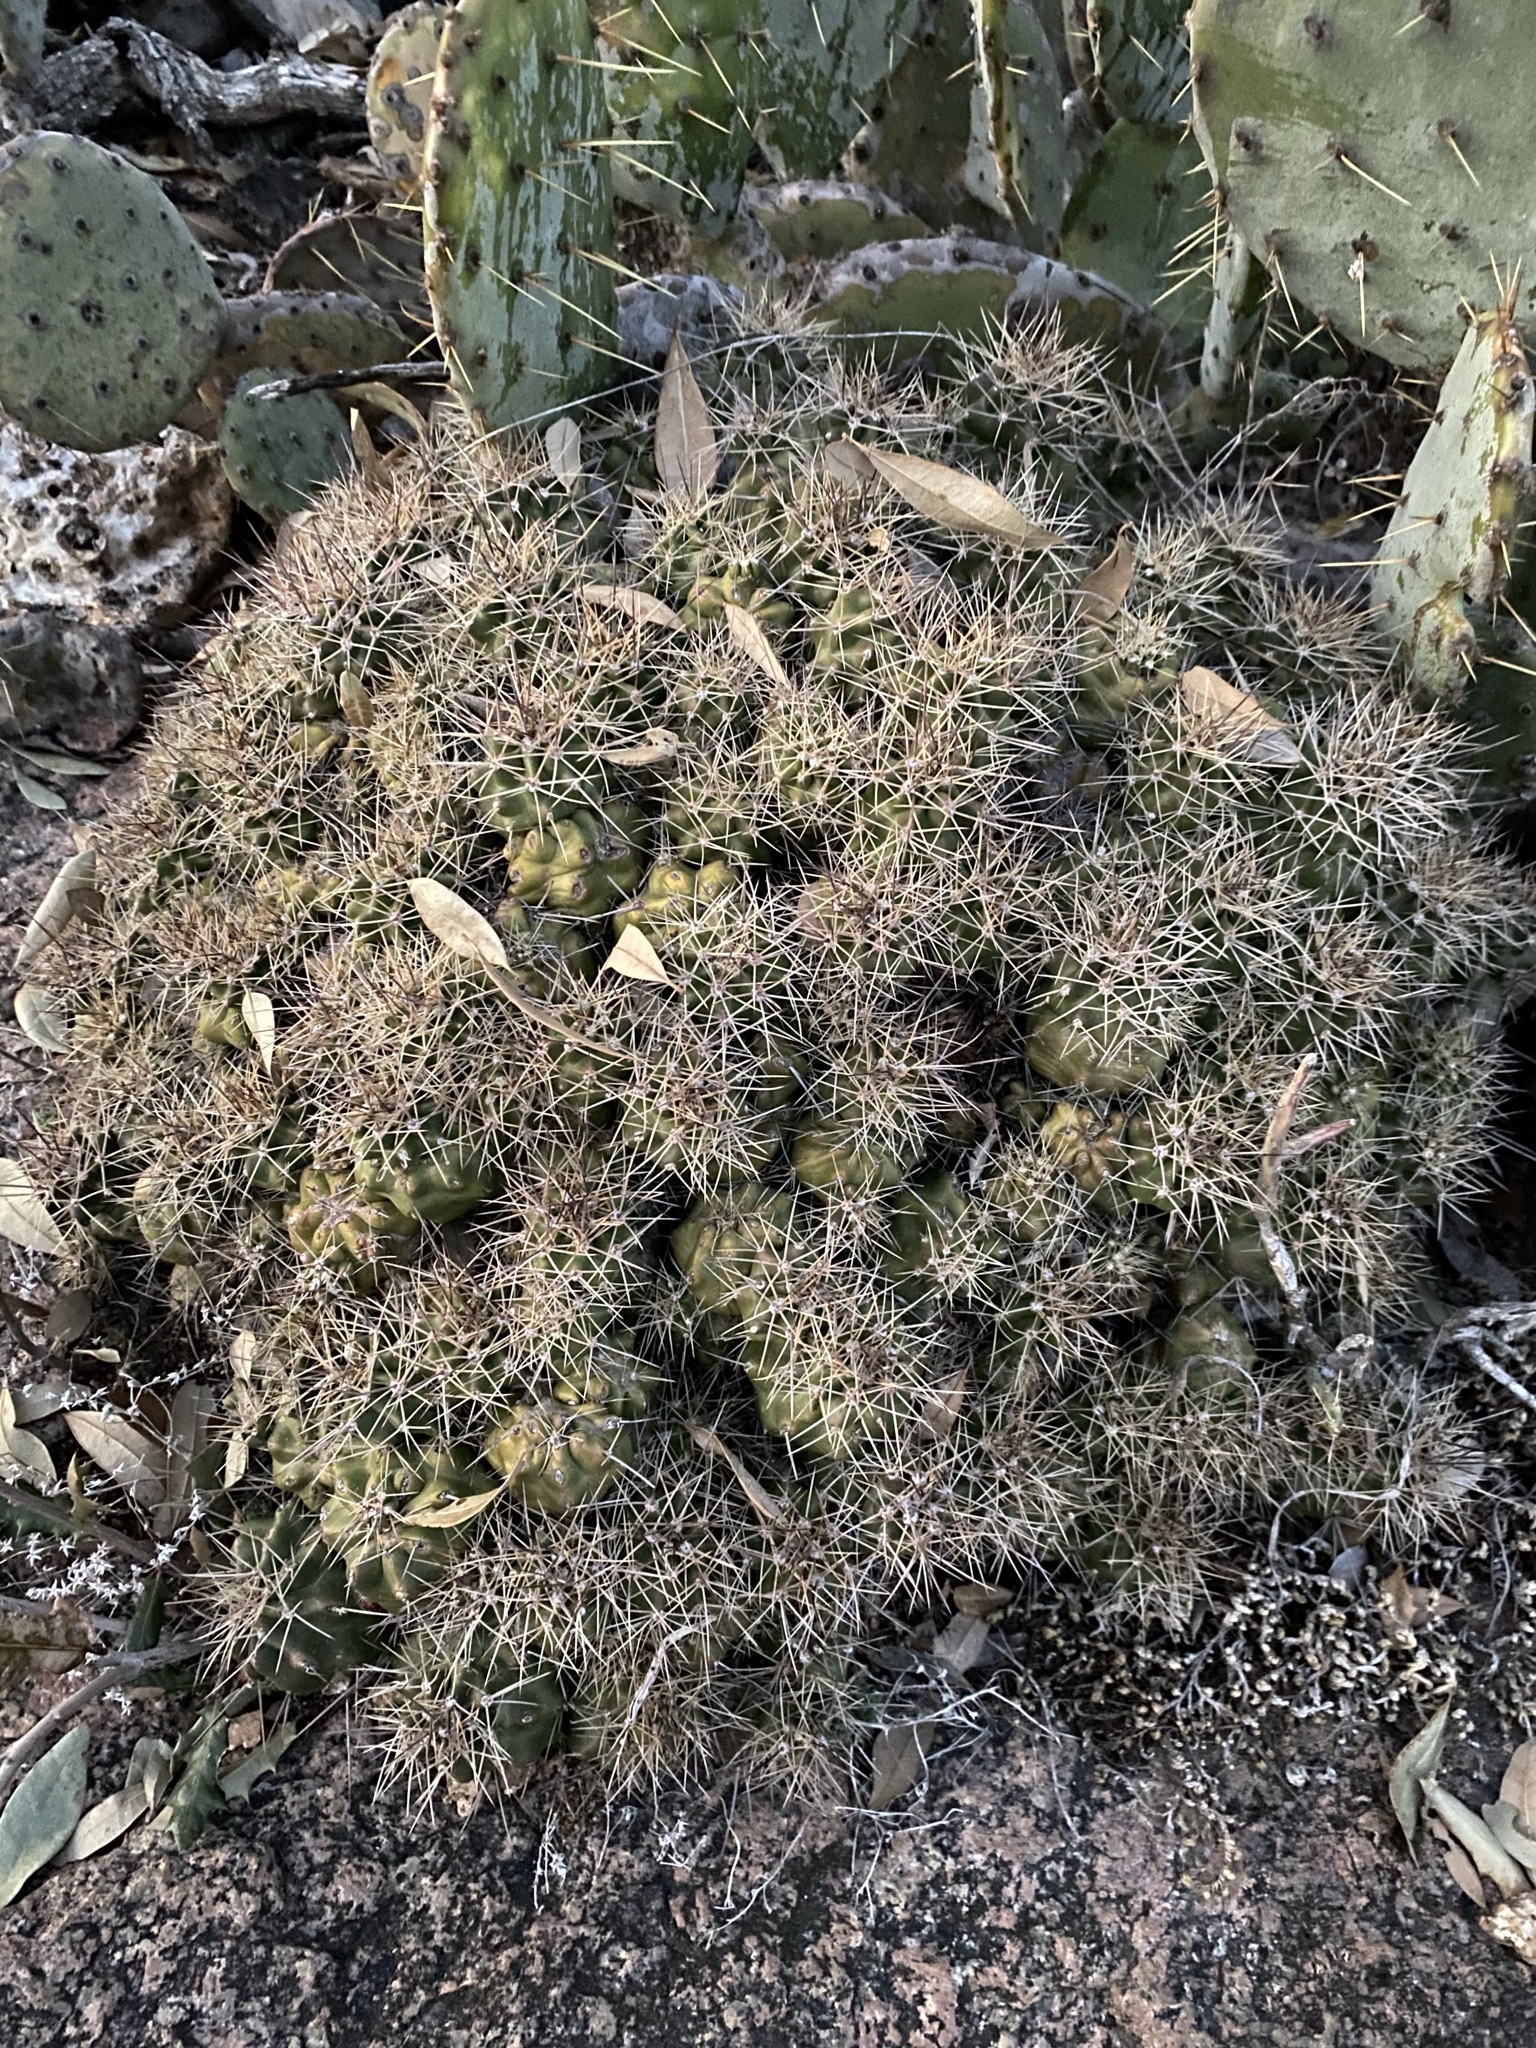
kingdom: Plantae
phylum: Tracheophyta
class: Magnoliopsida
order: Caryophyllales
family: Cactaceae
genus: Echinocereus
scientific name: Echinocereus coccineus
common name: Scarlet hedgehog cactus
